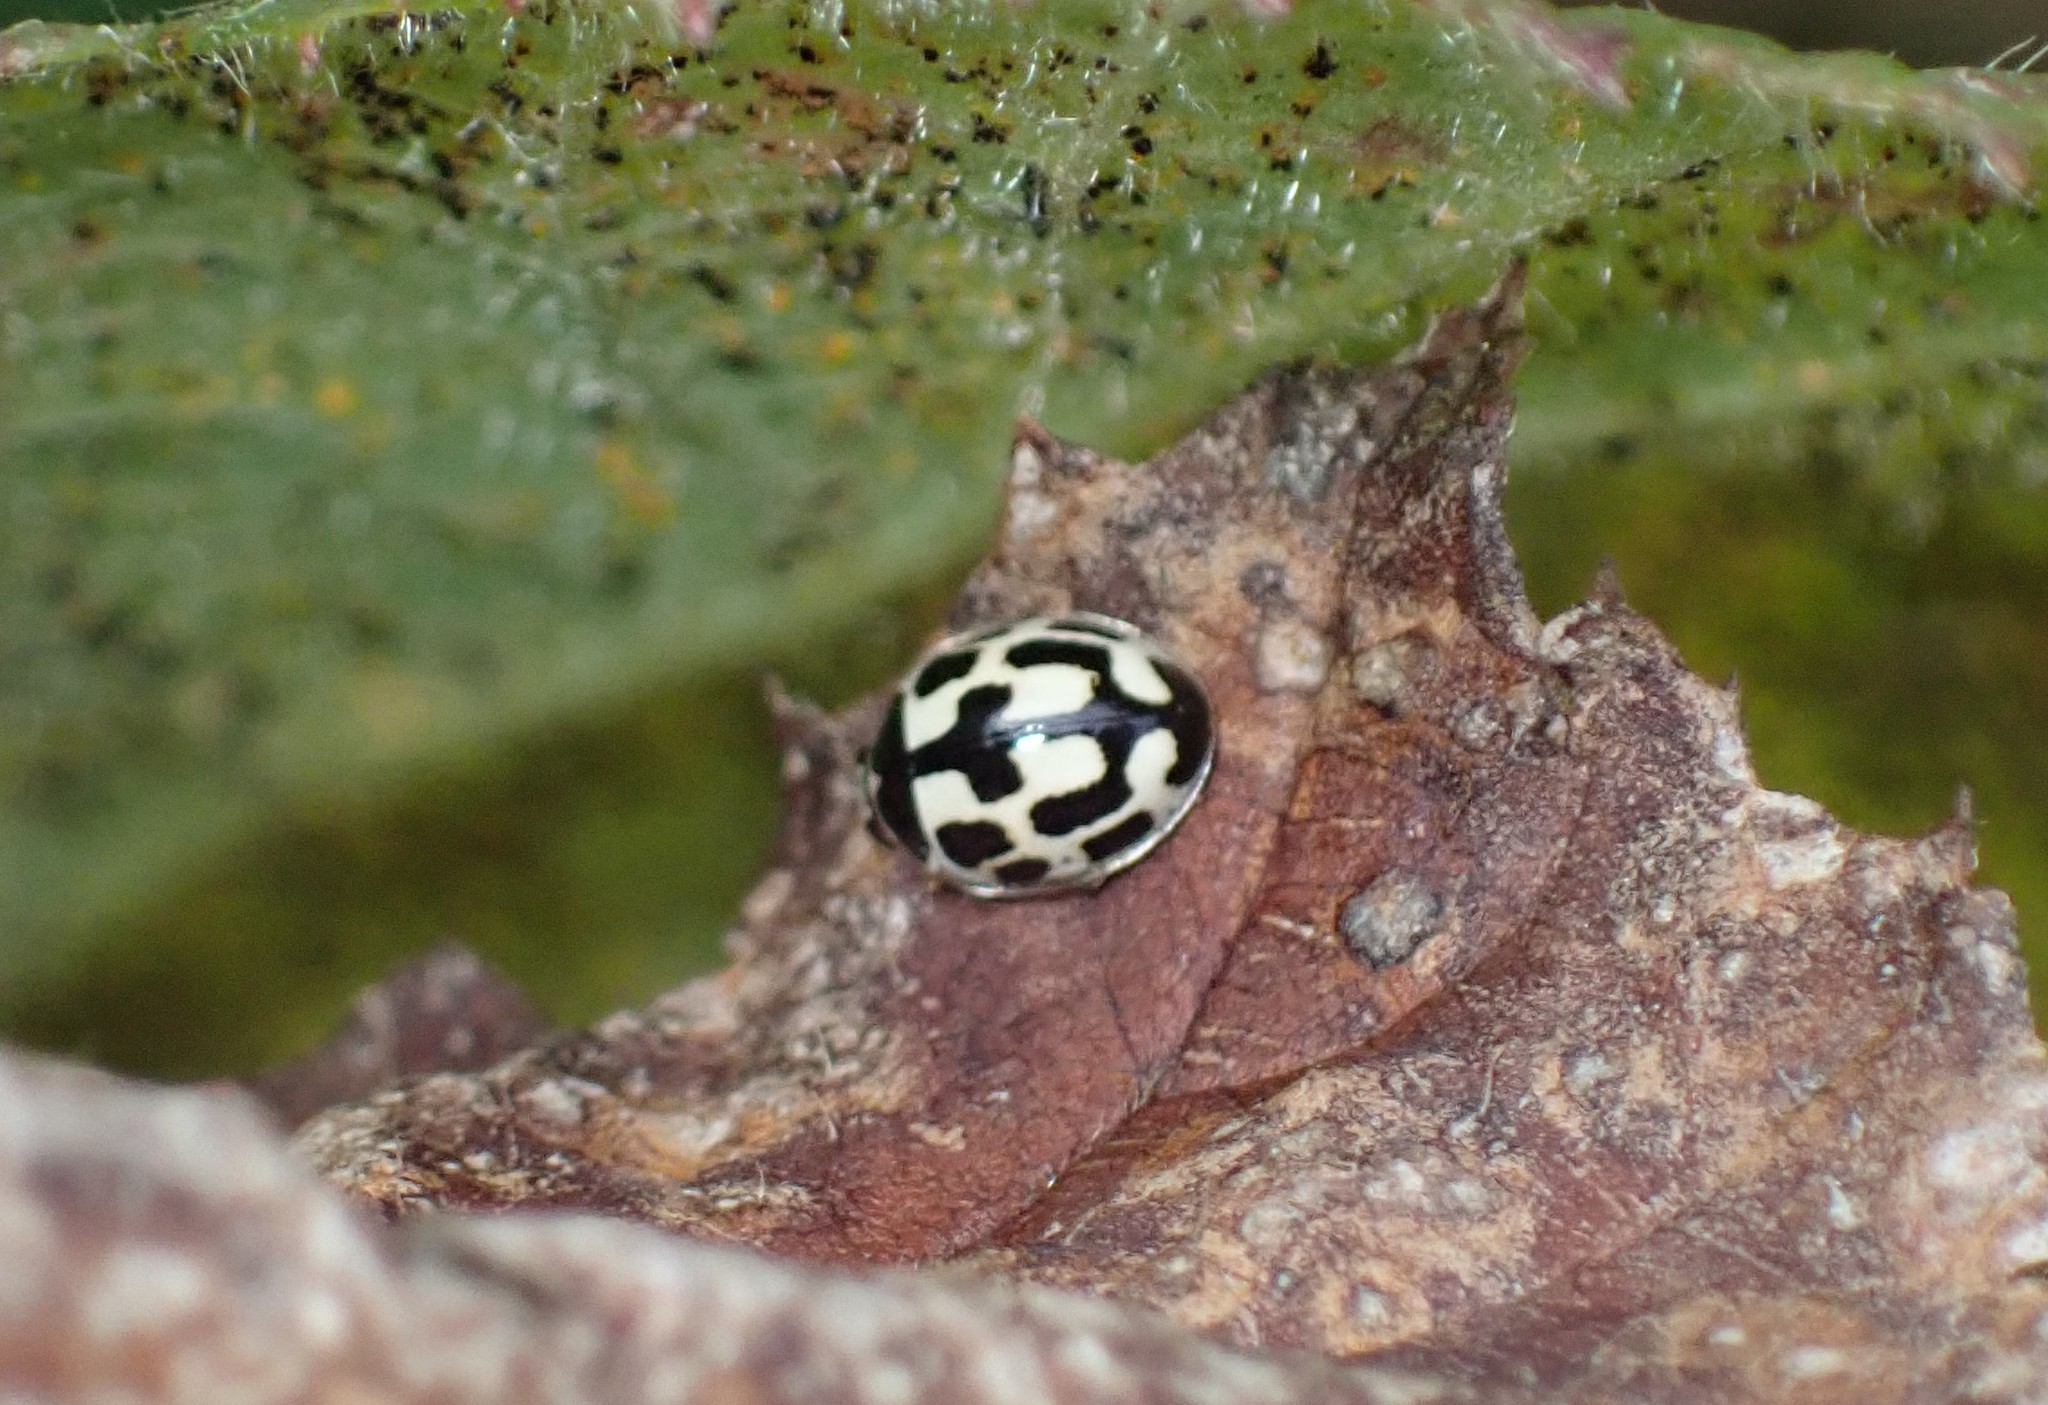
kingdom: Animalia
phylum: Arthropoda
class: Insecta
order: Coleoptera
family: Coccinellidae
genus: Propylaea
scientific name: Propylaea quatuordecimpunctata
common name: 14-spotted ladybird beetle
